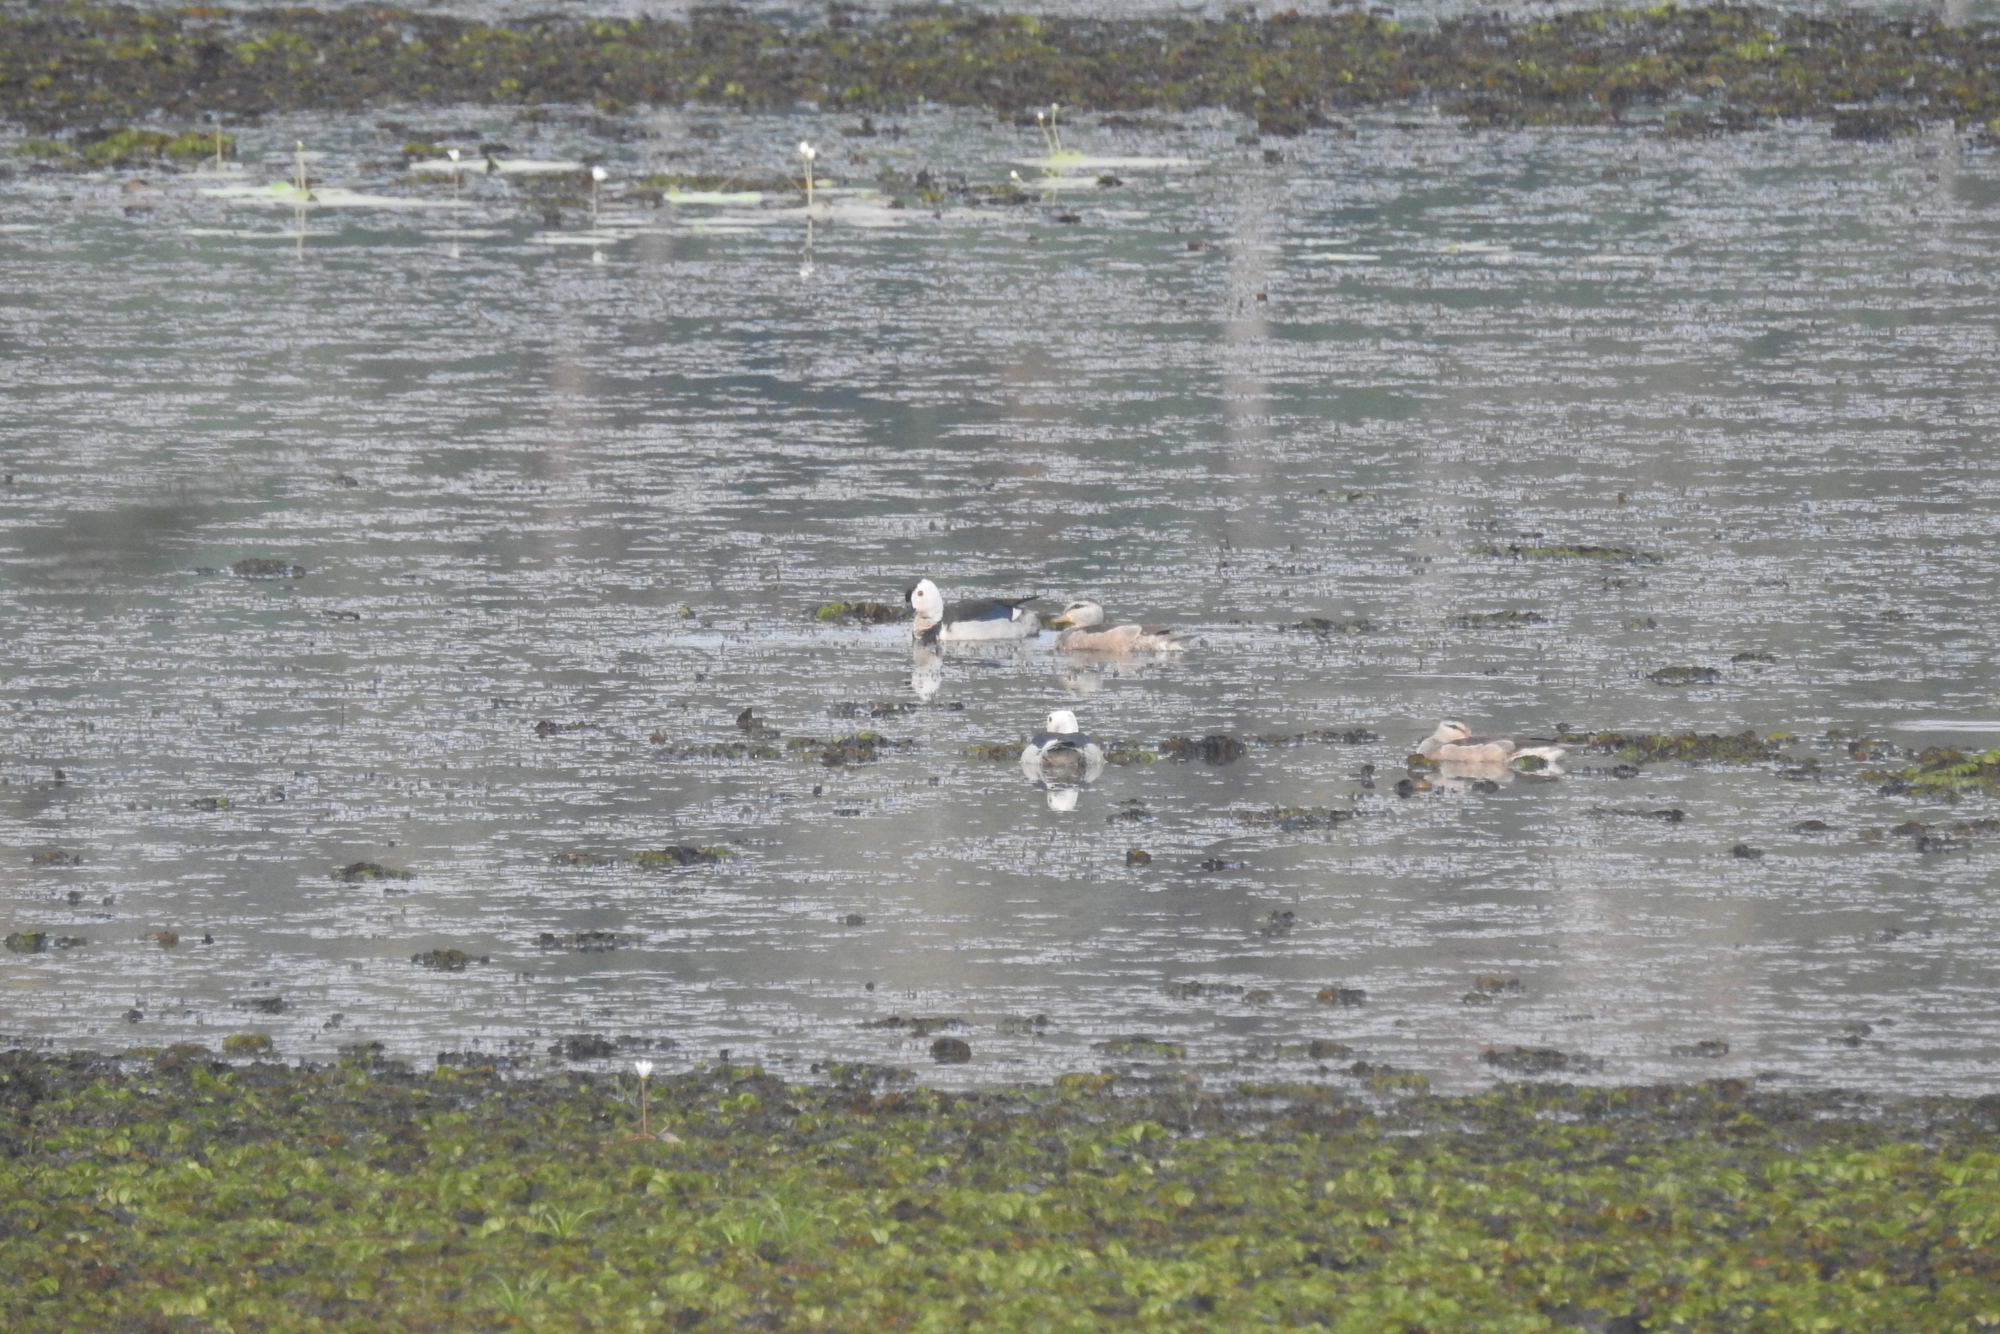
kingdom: Animalia
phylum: Chordata
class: Aves
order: Anseriformes
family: Anatidae
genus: Nettapus
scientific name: Nettapus coromandelianus
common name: Cotton pygmy-goose
